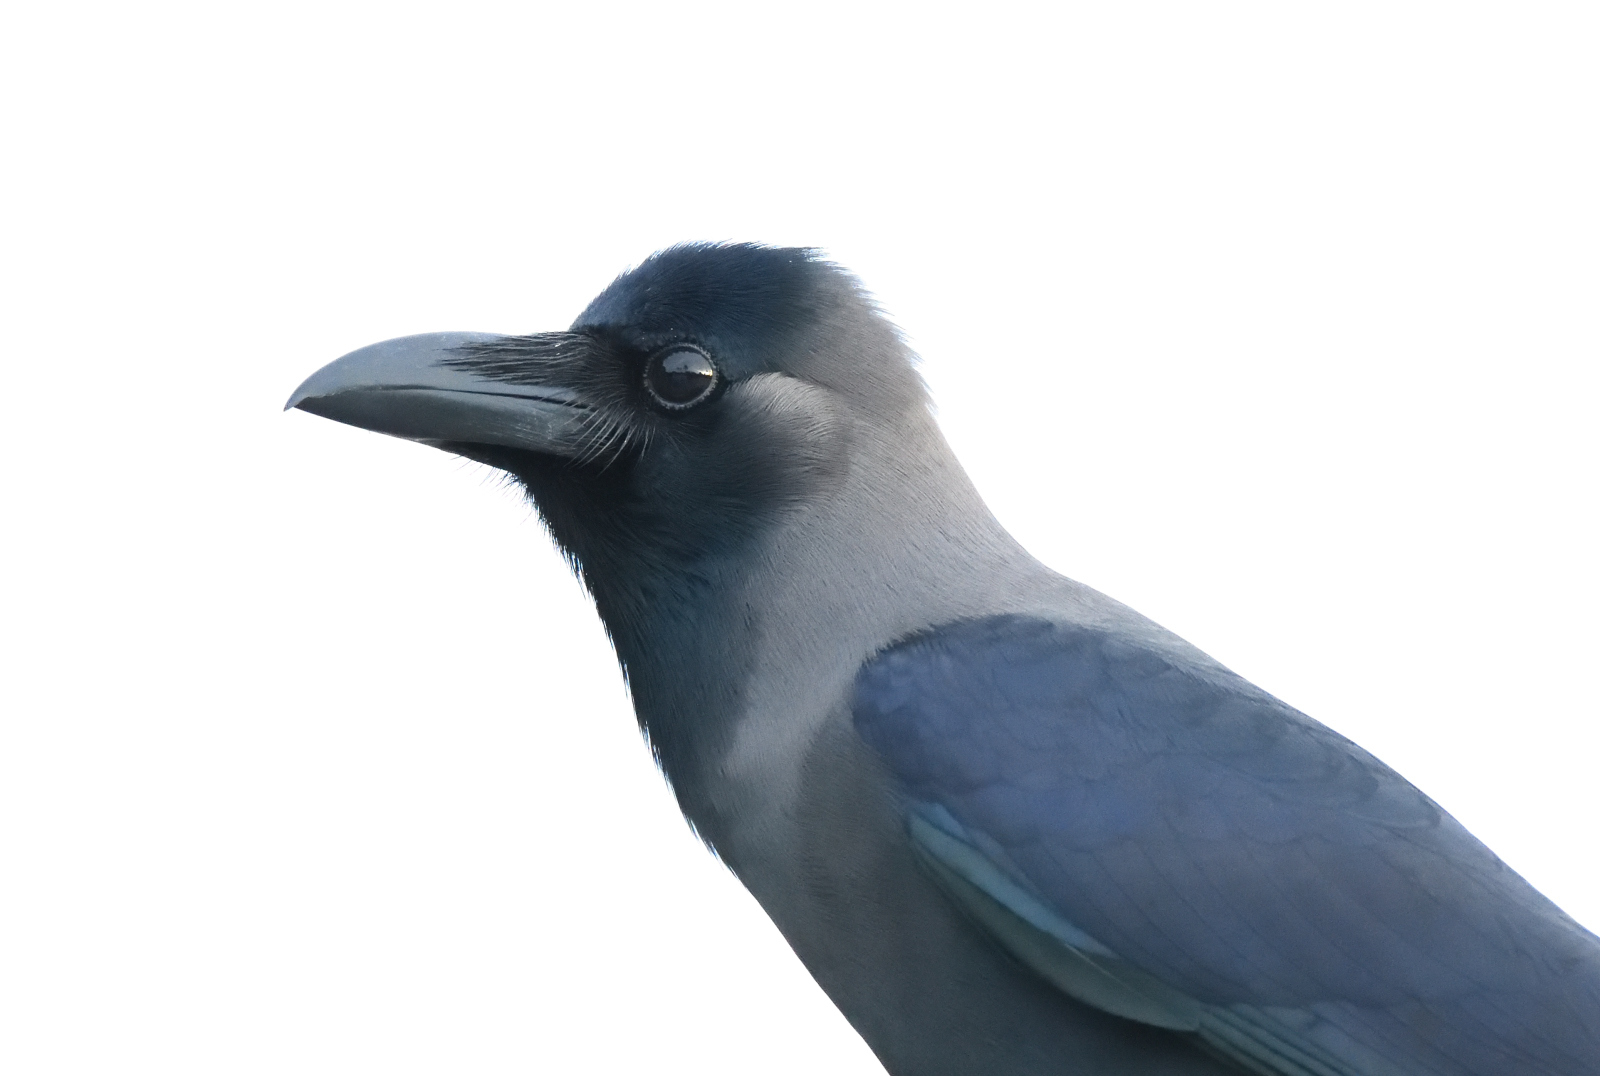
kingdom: Animalia
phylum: Chordata
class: Aves
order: Passeriformes
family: Corvidae
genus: Corvus
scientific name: Corvus splendens
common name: House crow
